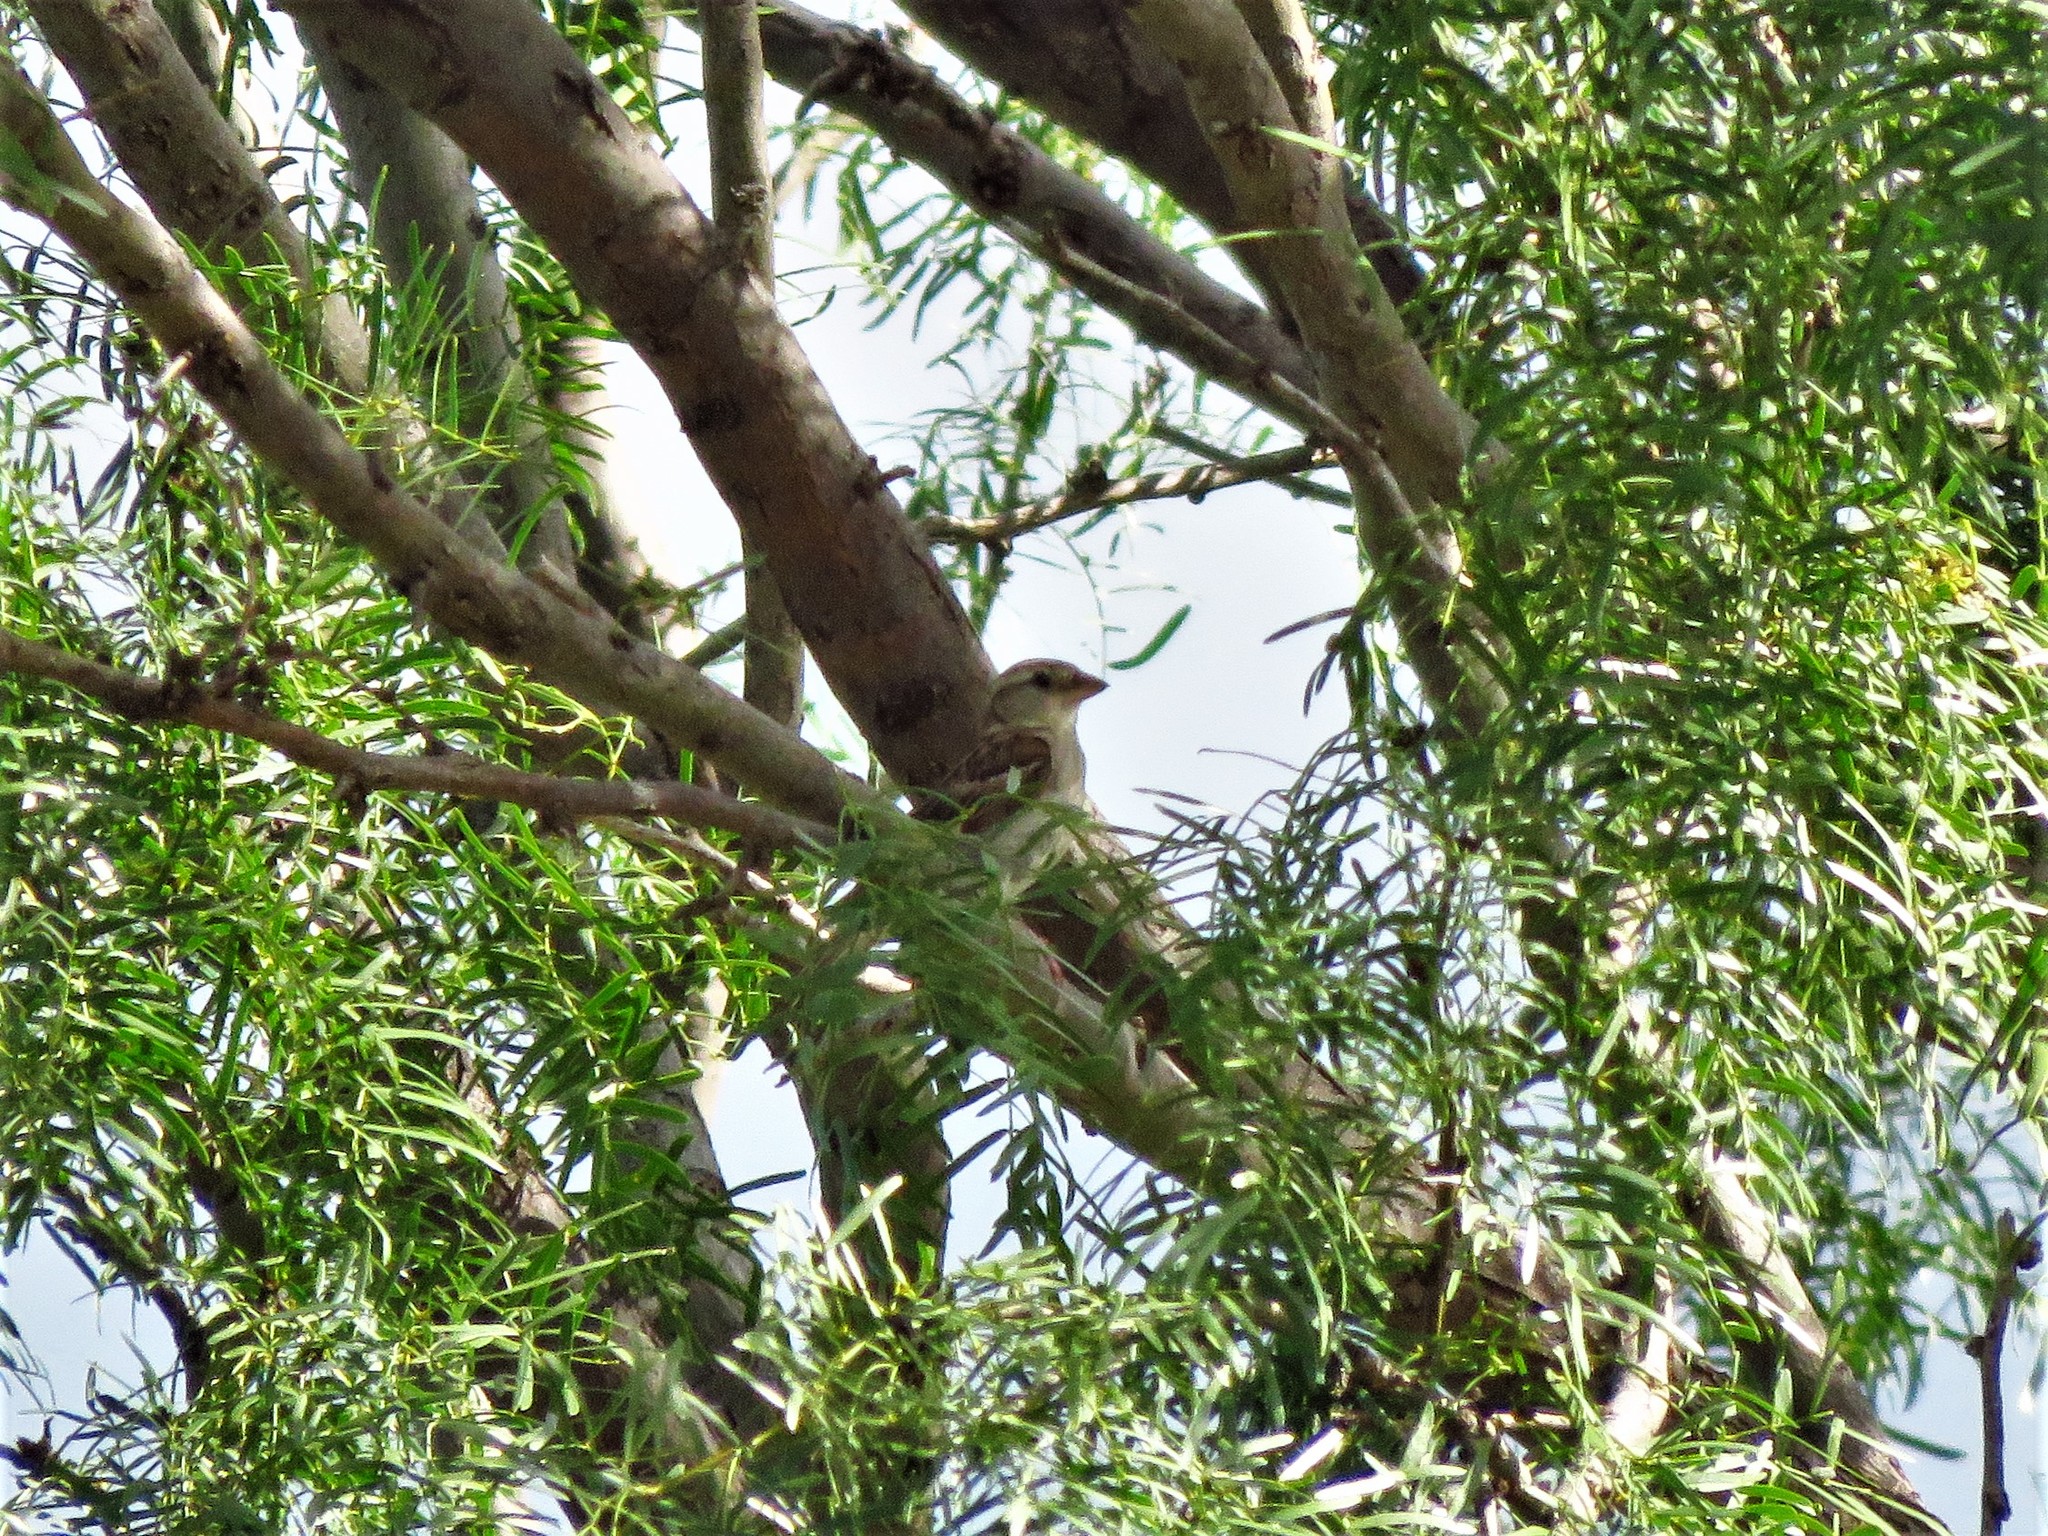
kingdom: Animalia
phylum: Chordata
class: Aves
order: Passeriformes
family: Passeridae
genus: Passer
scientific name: Passer domesticus
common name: House sparrow
